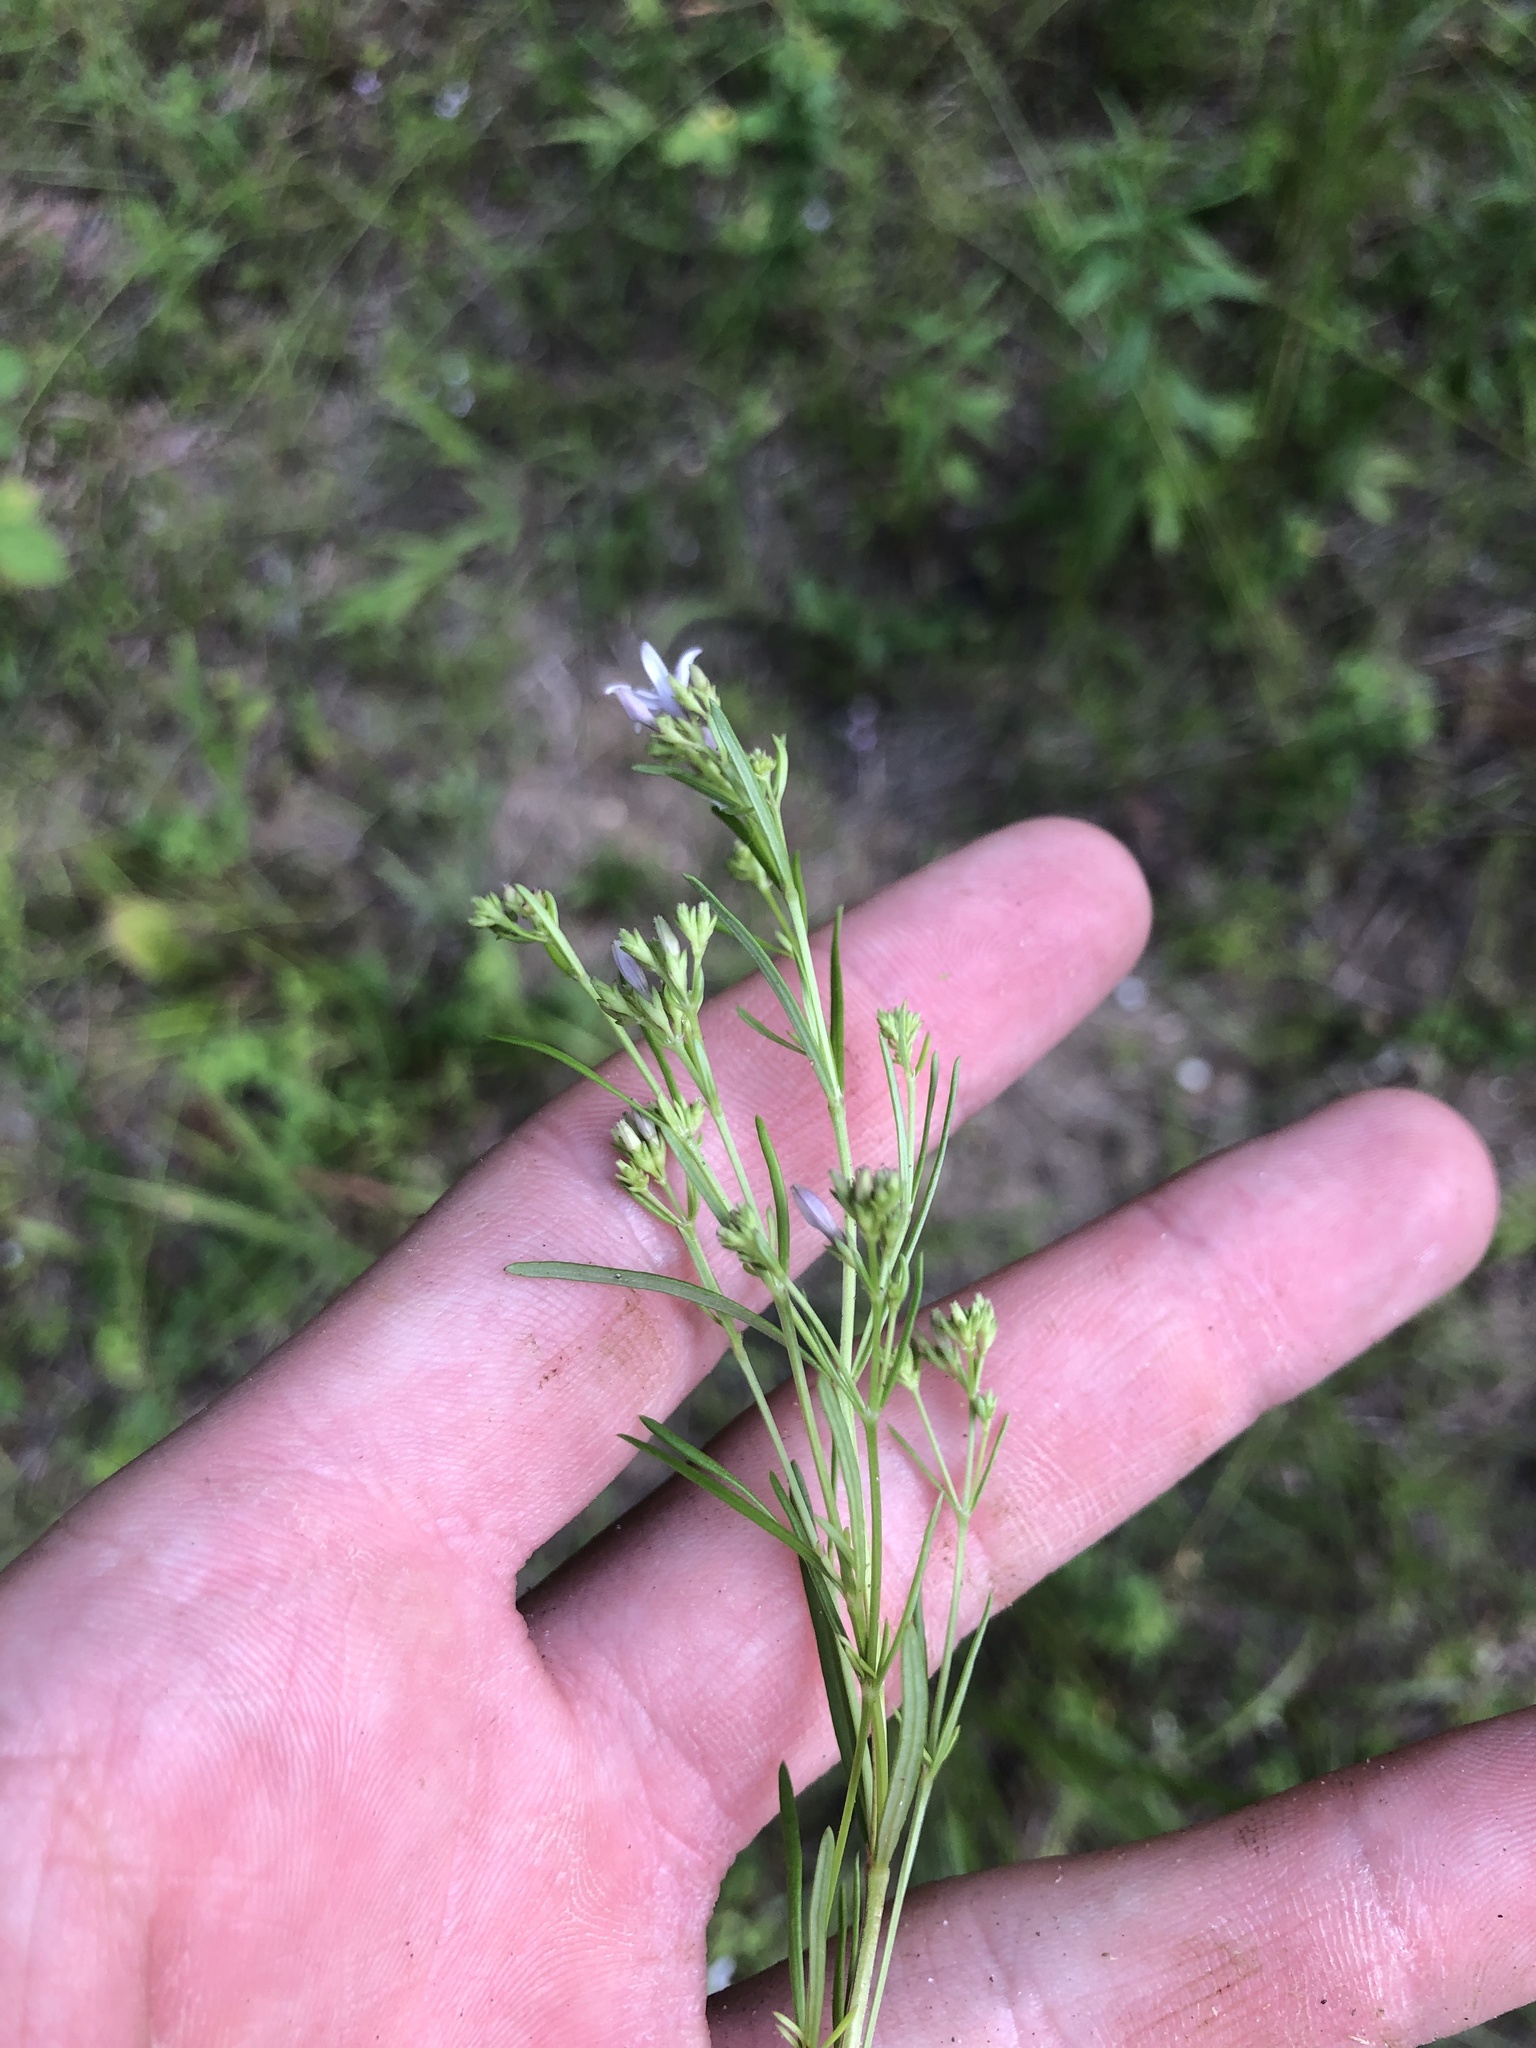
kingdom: Plantae
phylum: Tracheophyta
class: Magnoliopsida
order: Gentianales
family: Rubiaceae
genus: Stenaria
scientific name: Stenaria nigricans
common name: Diamondflowers
